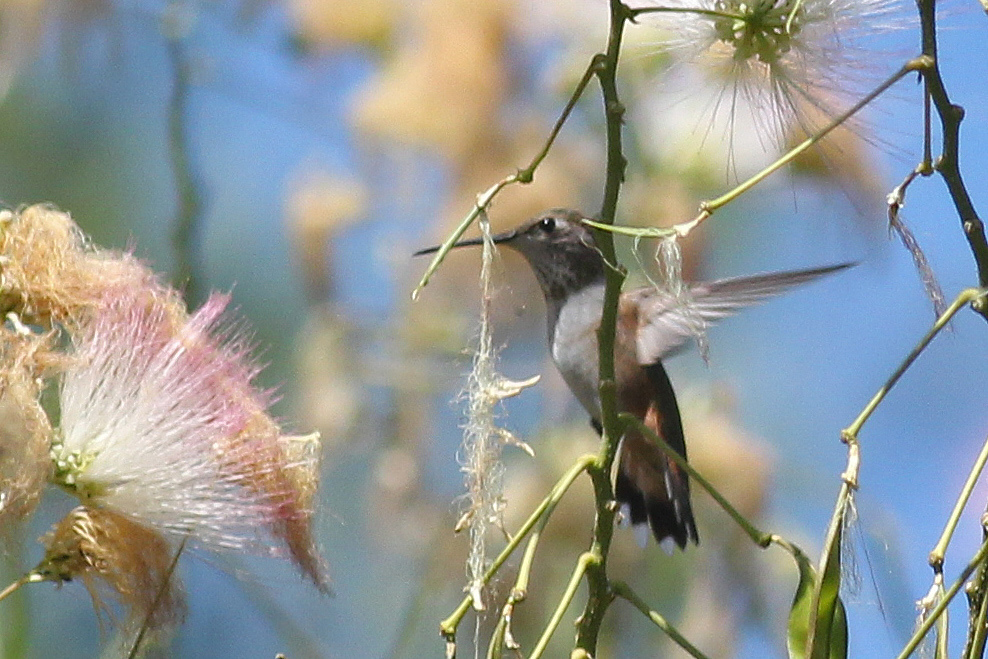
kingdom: Animalia
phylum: Chordata
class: Aves
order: Apodiformes
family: Trochilidae
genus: Selasphorus
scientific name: Selasphorus rufus
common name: Rufous hummingbird
